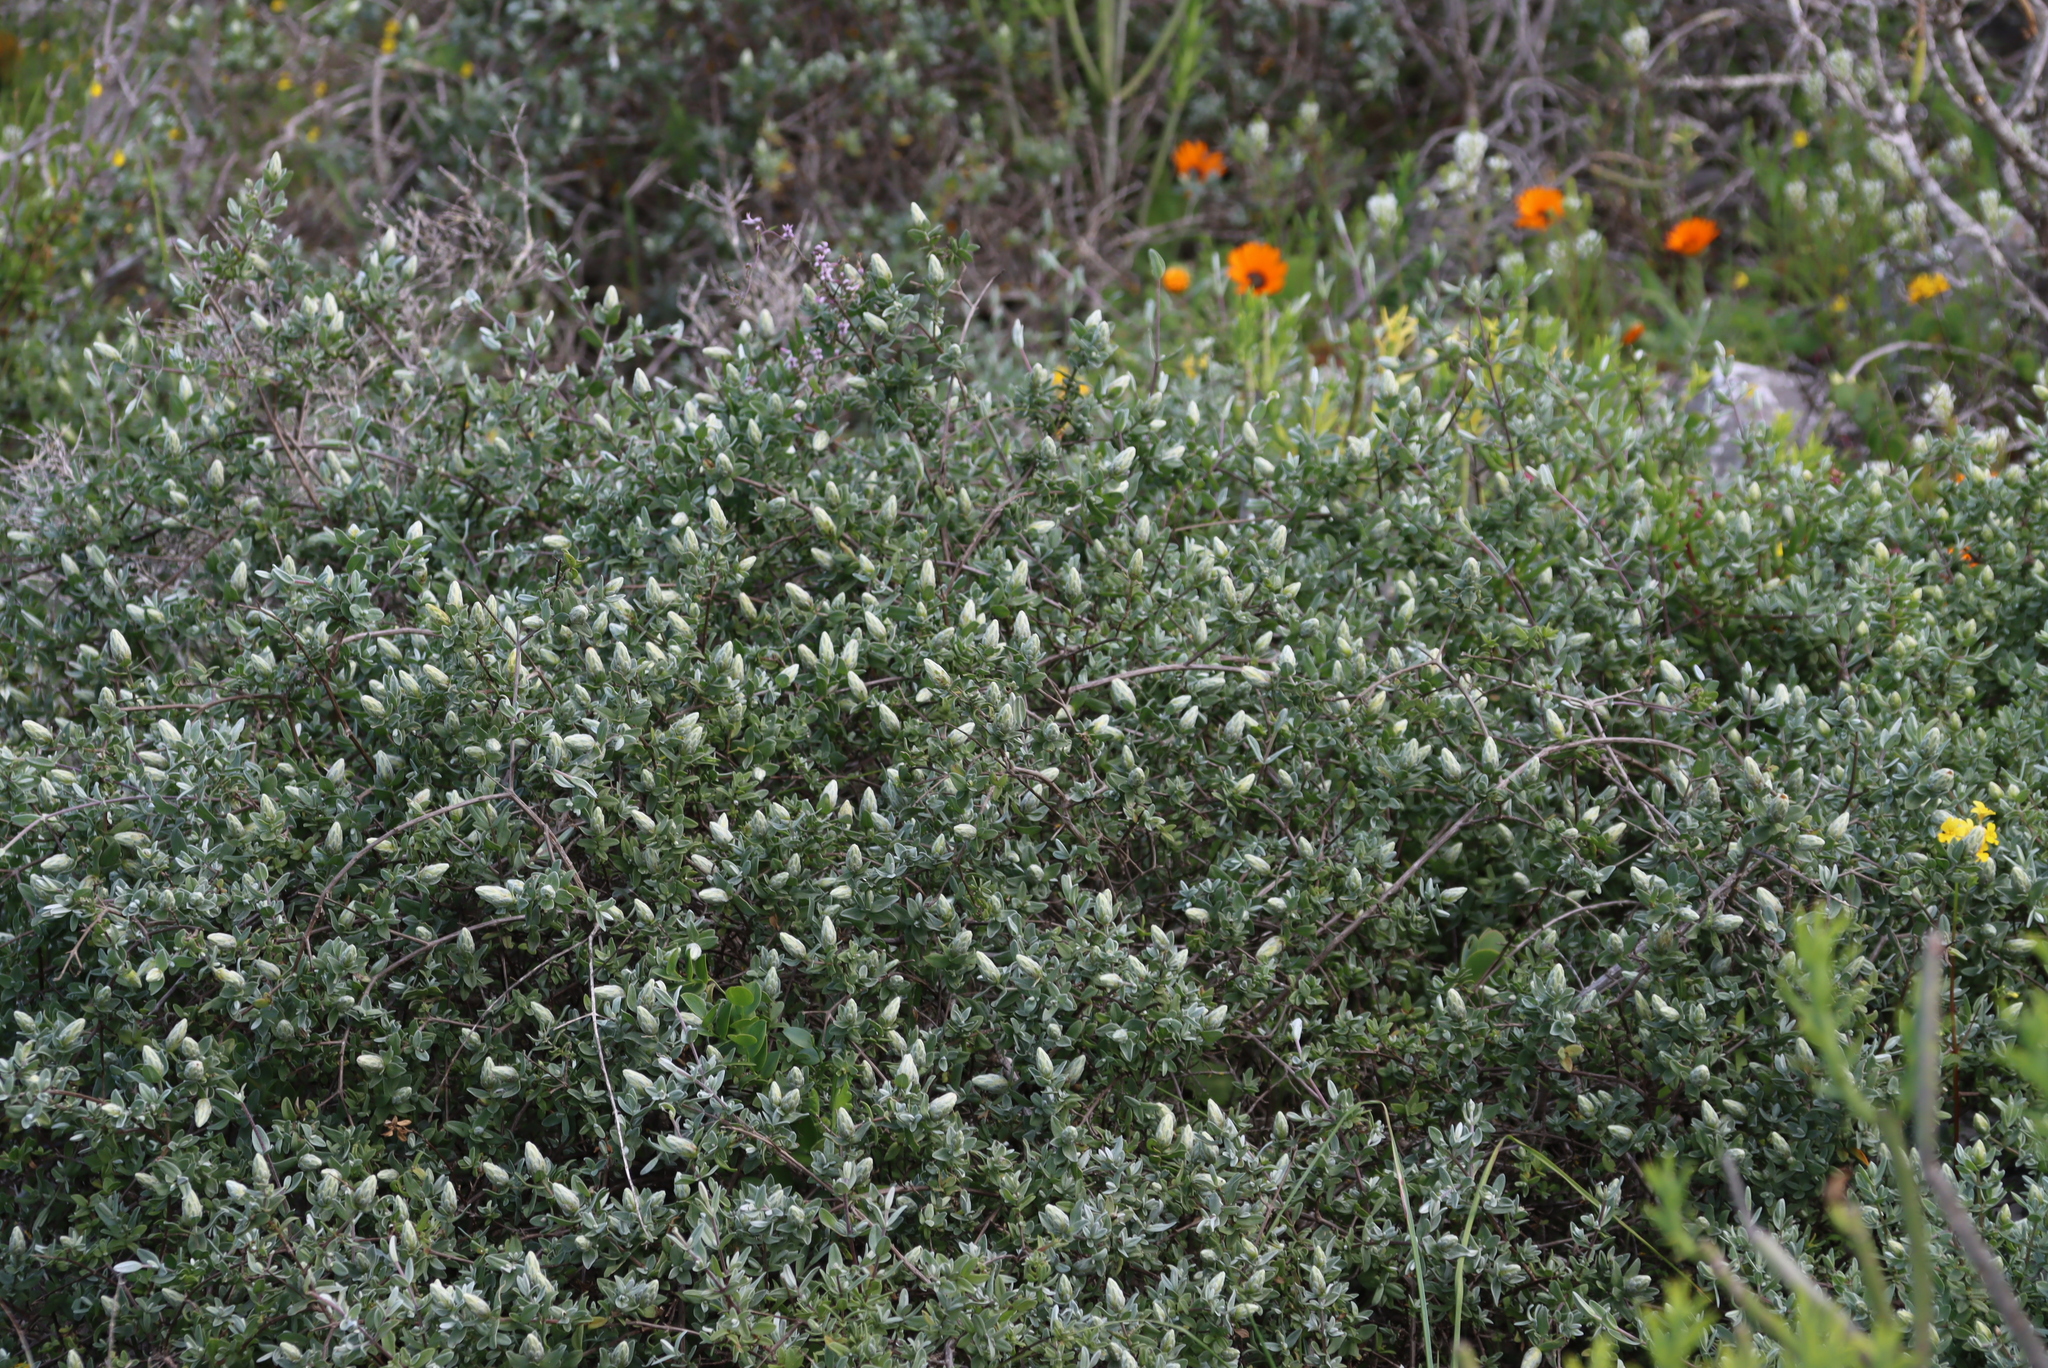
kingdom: Plantae
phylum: Tracheophyta
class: Magnoliopsida
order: Asterales
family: Asteraceae
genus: Pteronia
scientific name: Pteronia ovalifolia
